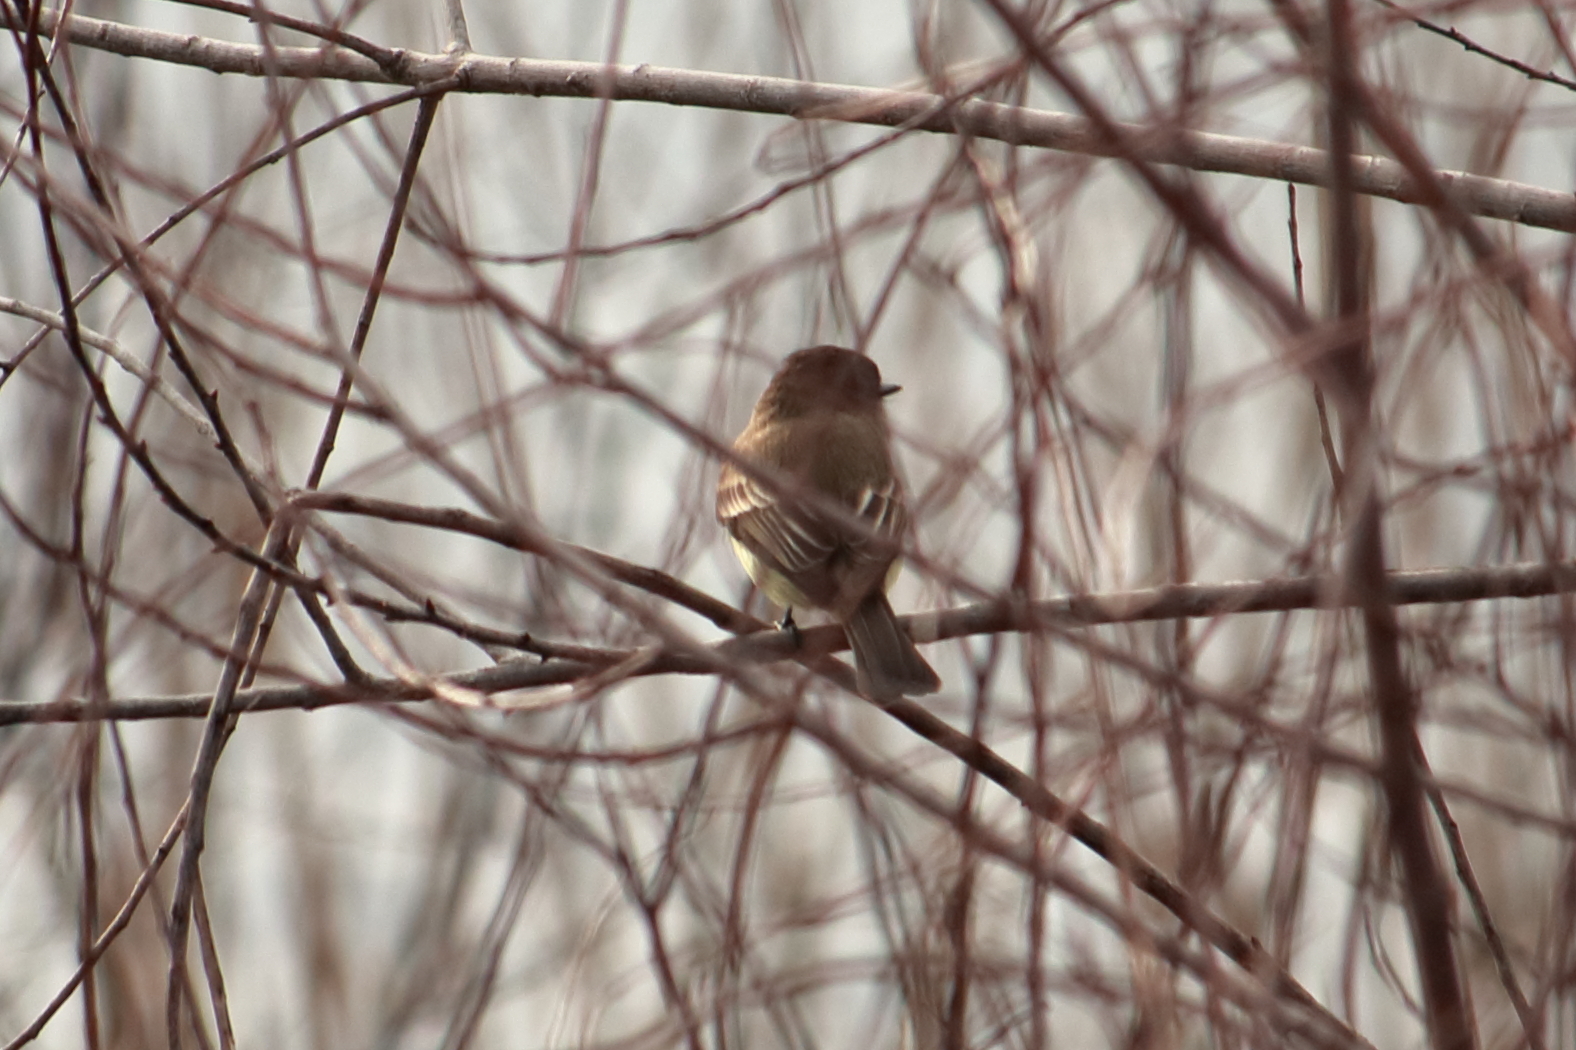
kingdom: Animalia
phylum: Chordata
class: Aves
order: Passeriformes
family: Tyrannidae
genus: Sayornis
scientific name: Sayornis phoebe
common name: Eastern phoebe
